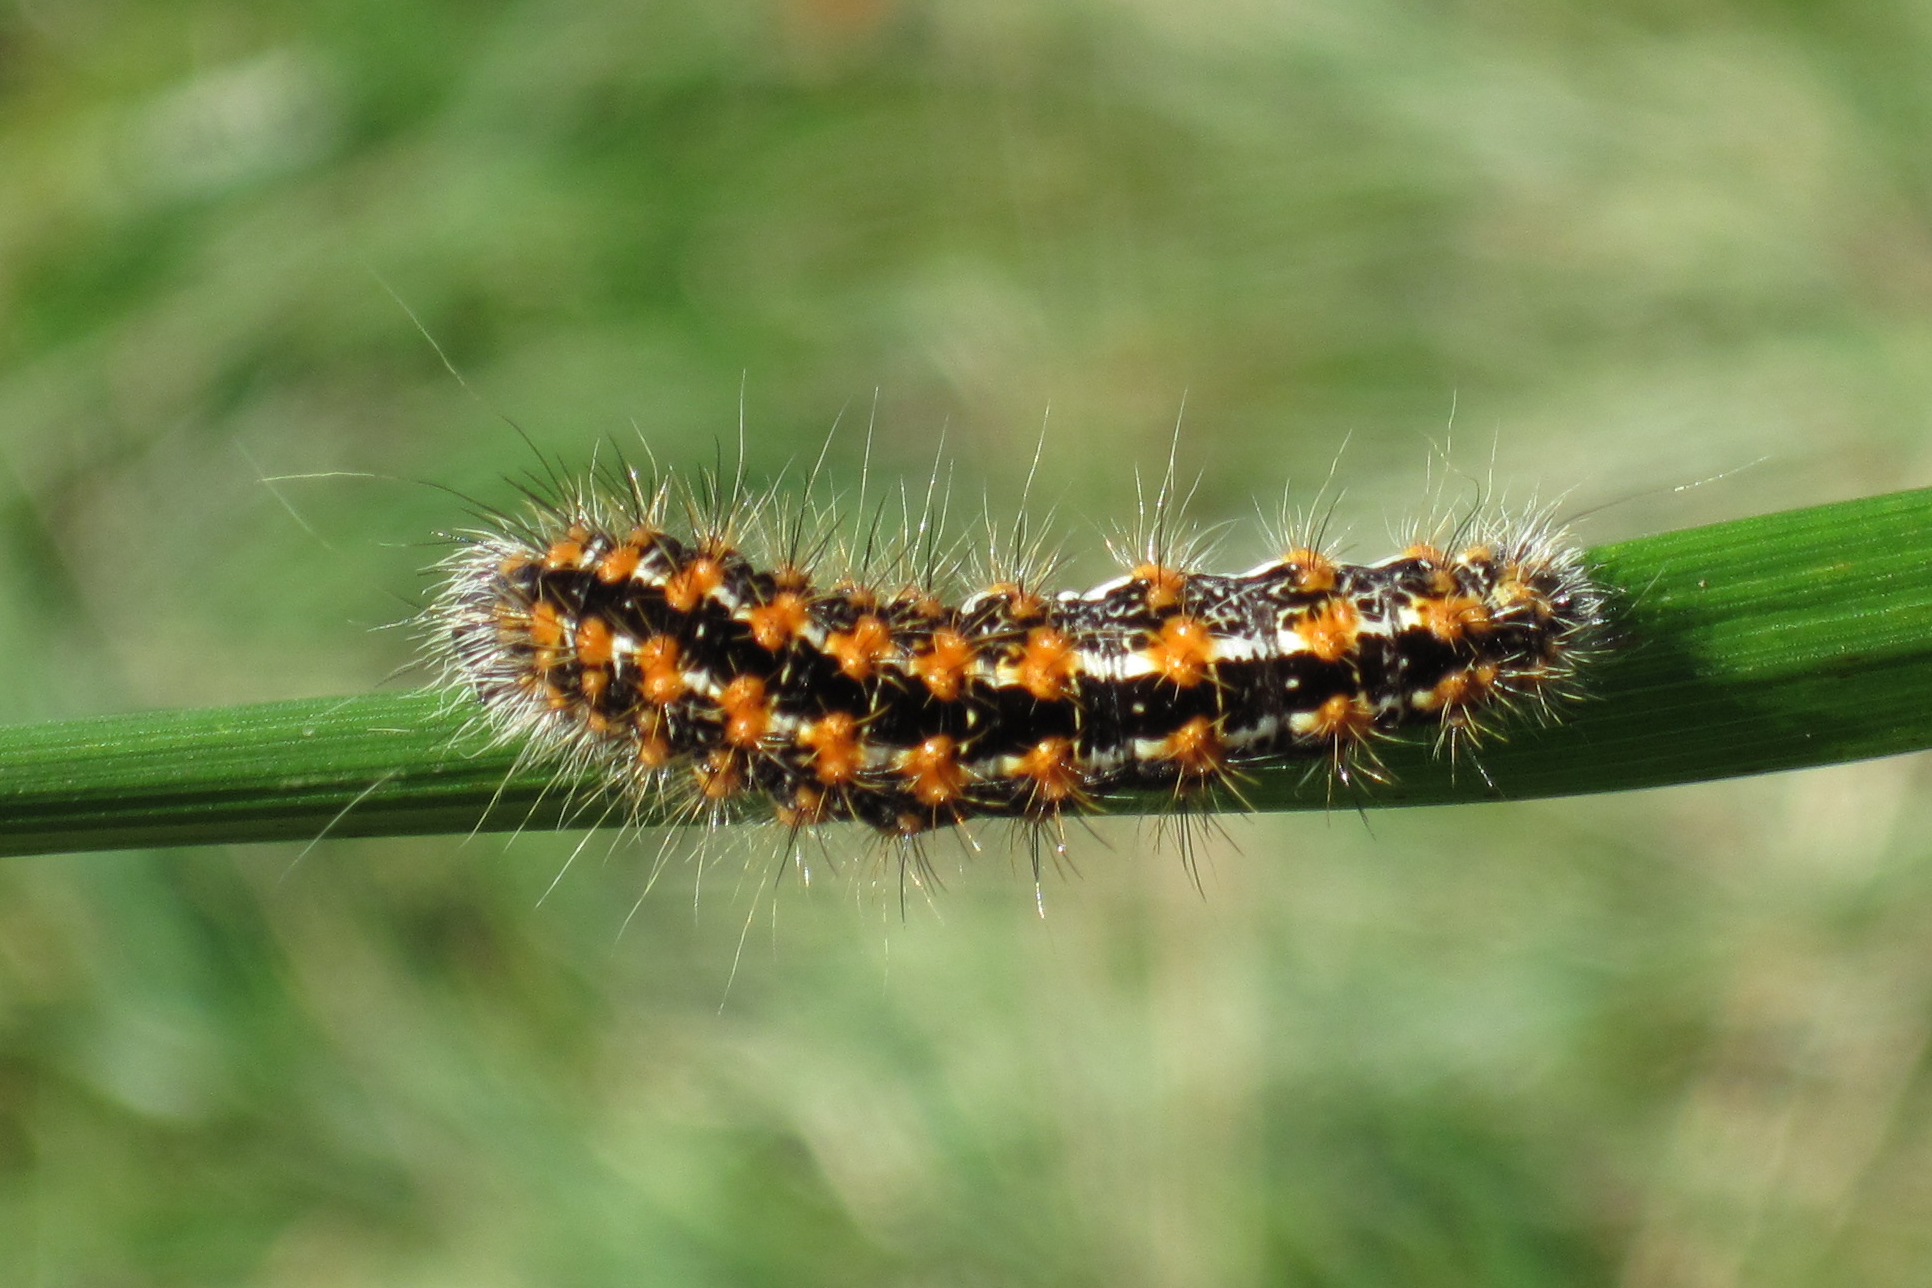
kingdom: Animalia
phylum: Arthropoda
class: Insecta
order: Lepidoptera
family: Noctuidae
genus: Acronicta
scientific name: Acronicta insularis
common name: Henry's marsh moth
